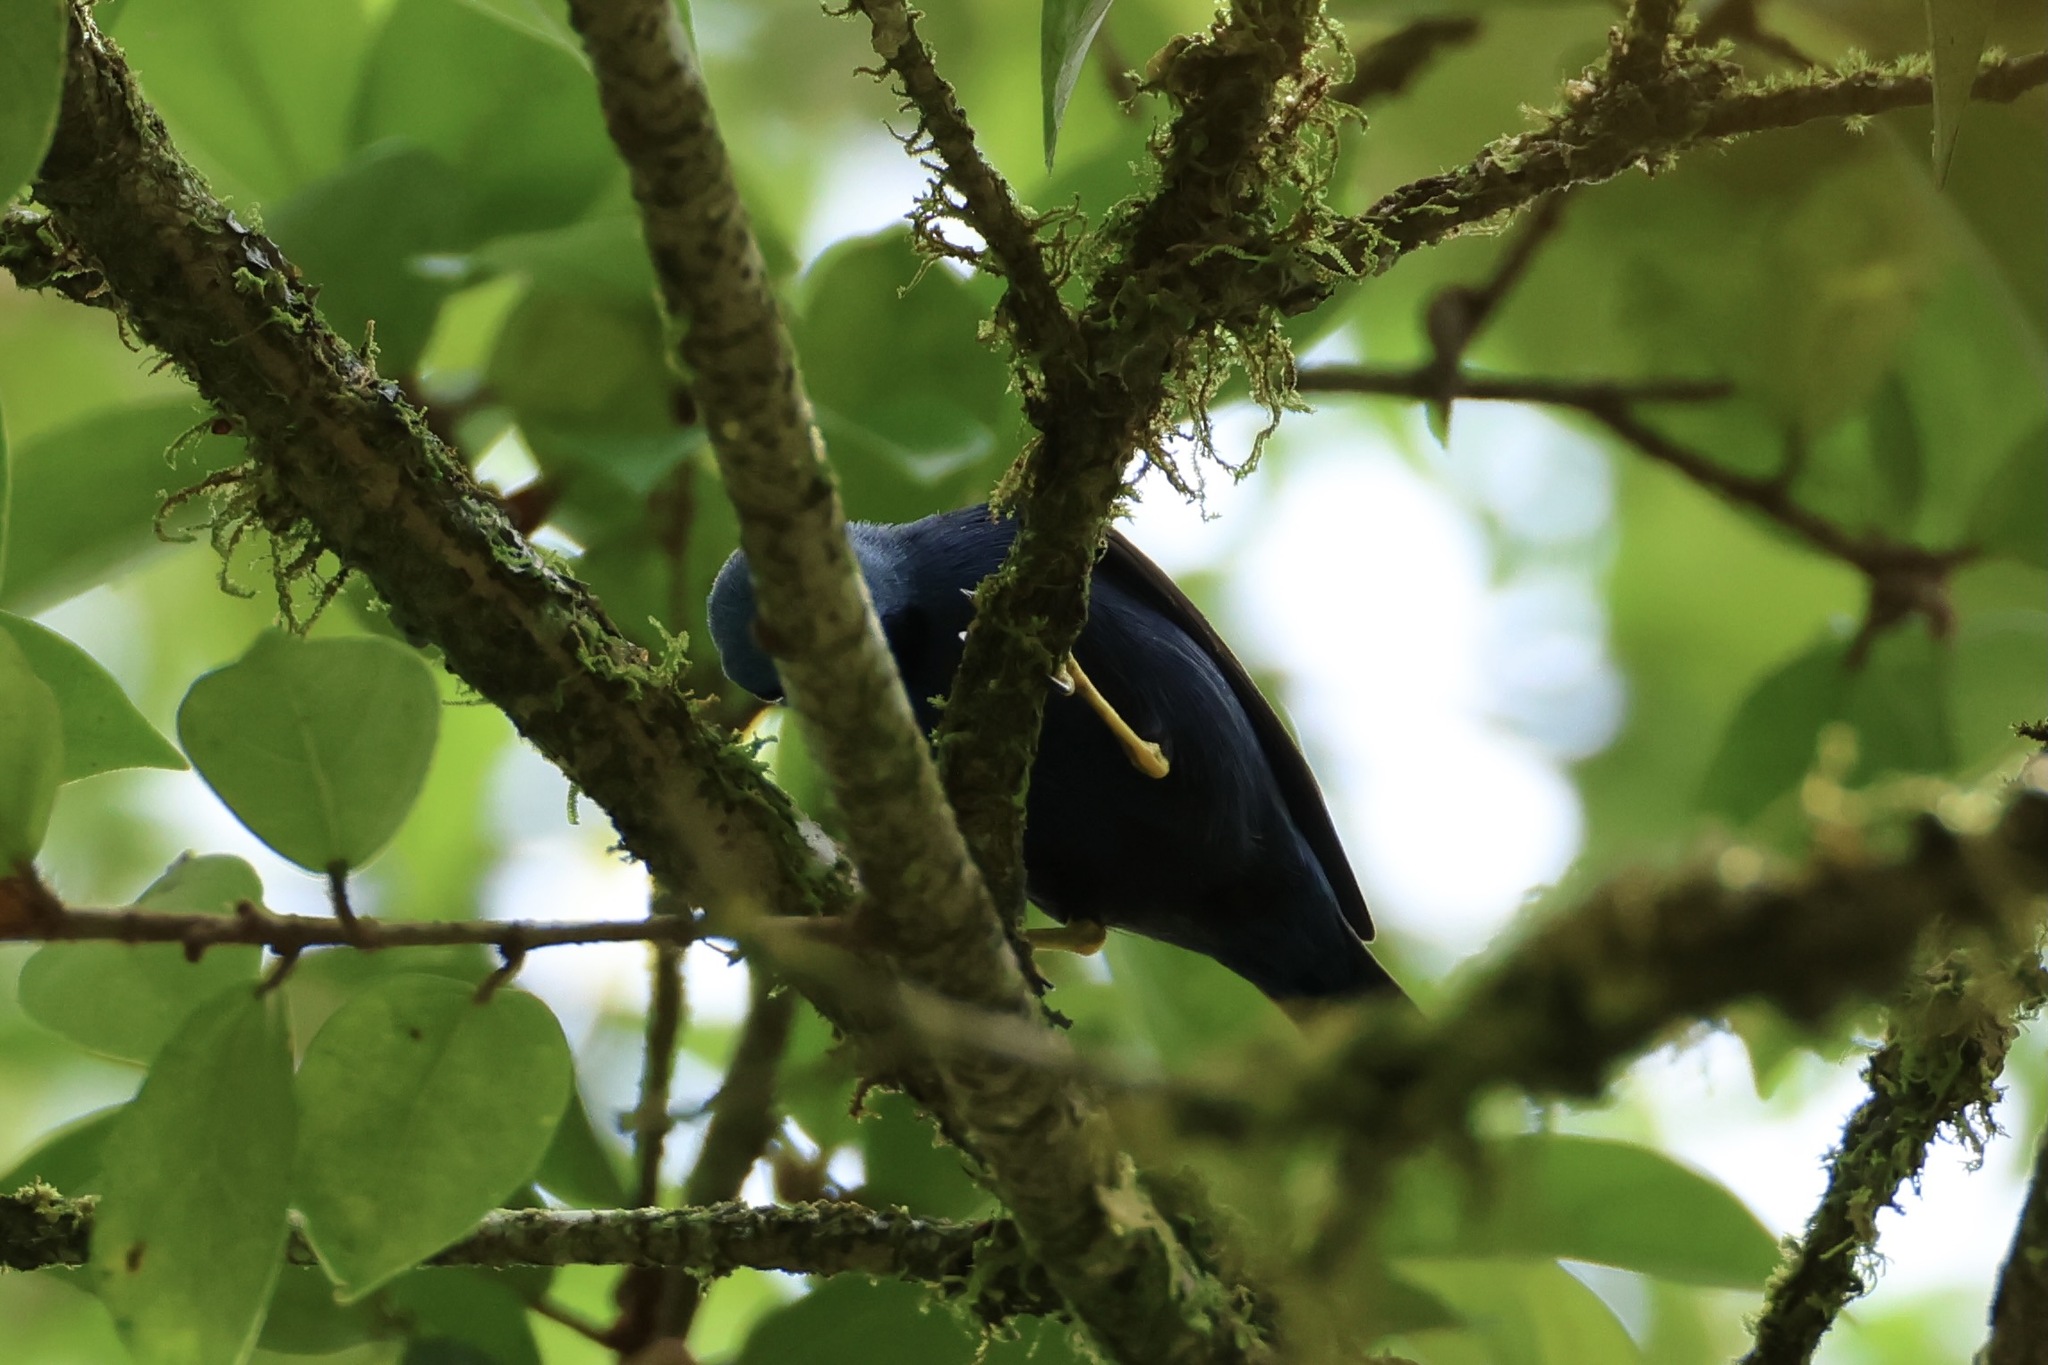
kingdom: Animalia
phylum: Chordata
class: Aves
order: Passeriformes
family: Thraupidae
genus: Cyanerpes
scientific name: Cyanerpes lucidus
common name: Shining honeycreeper
